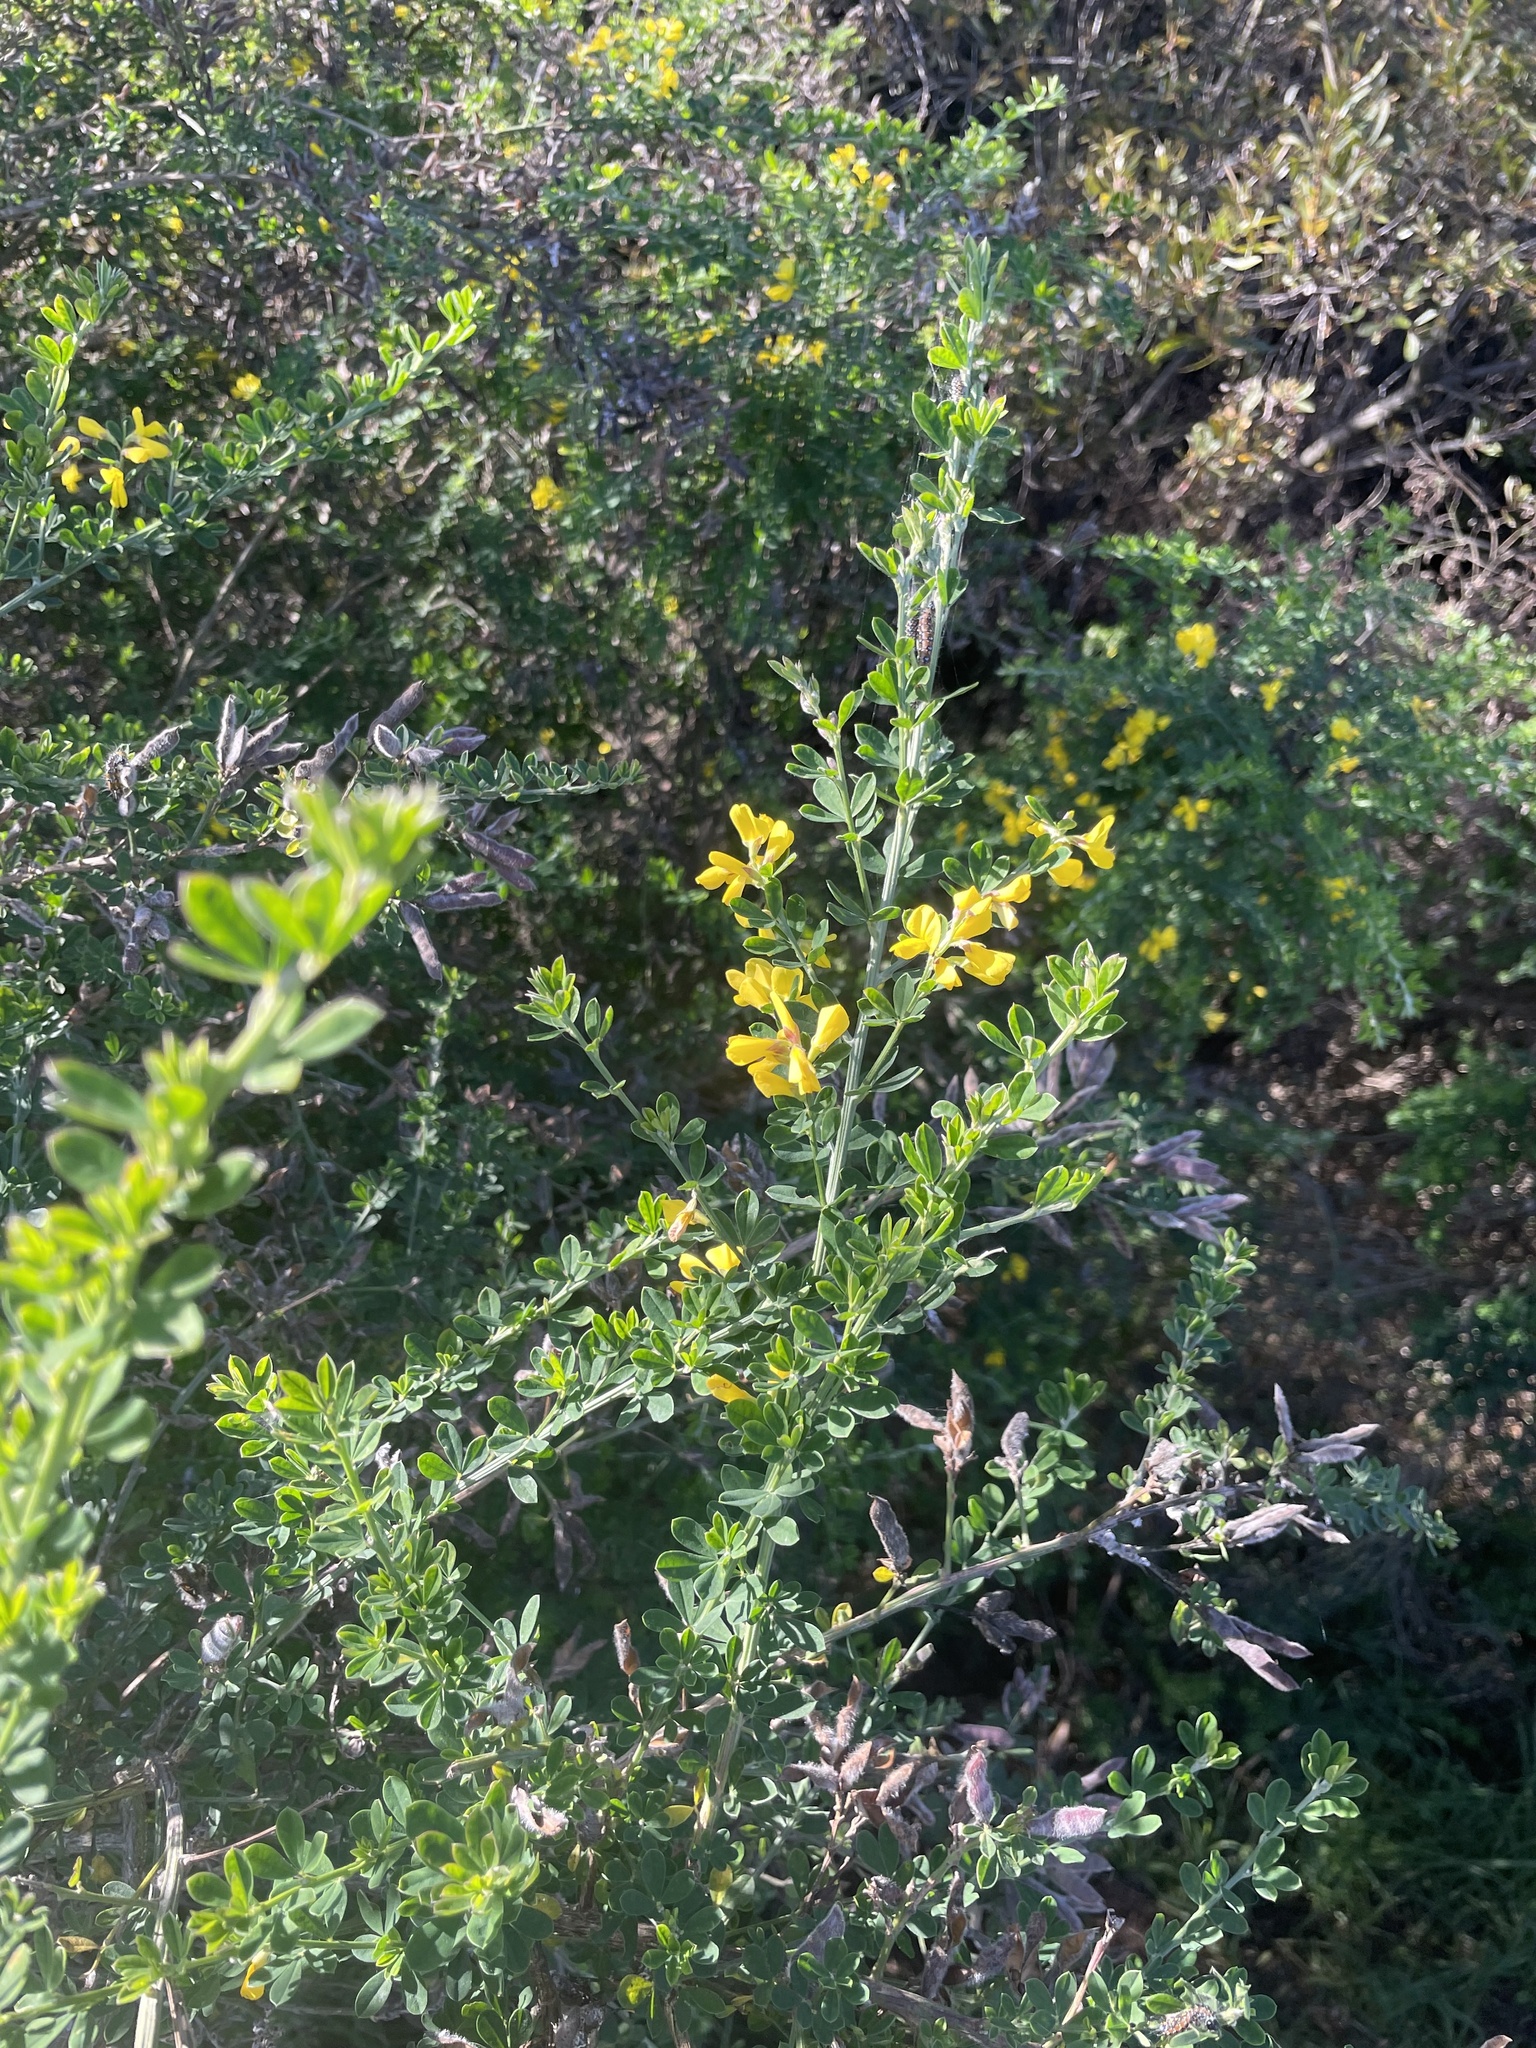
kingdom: Plantae
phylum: Tracheophyta
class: Magnoliopsida
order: Fabales
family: Fabaceae
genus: Genista
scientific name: Genista monspessulana
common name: Montpellier broom
